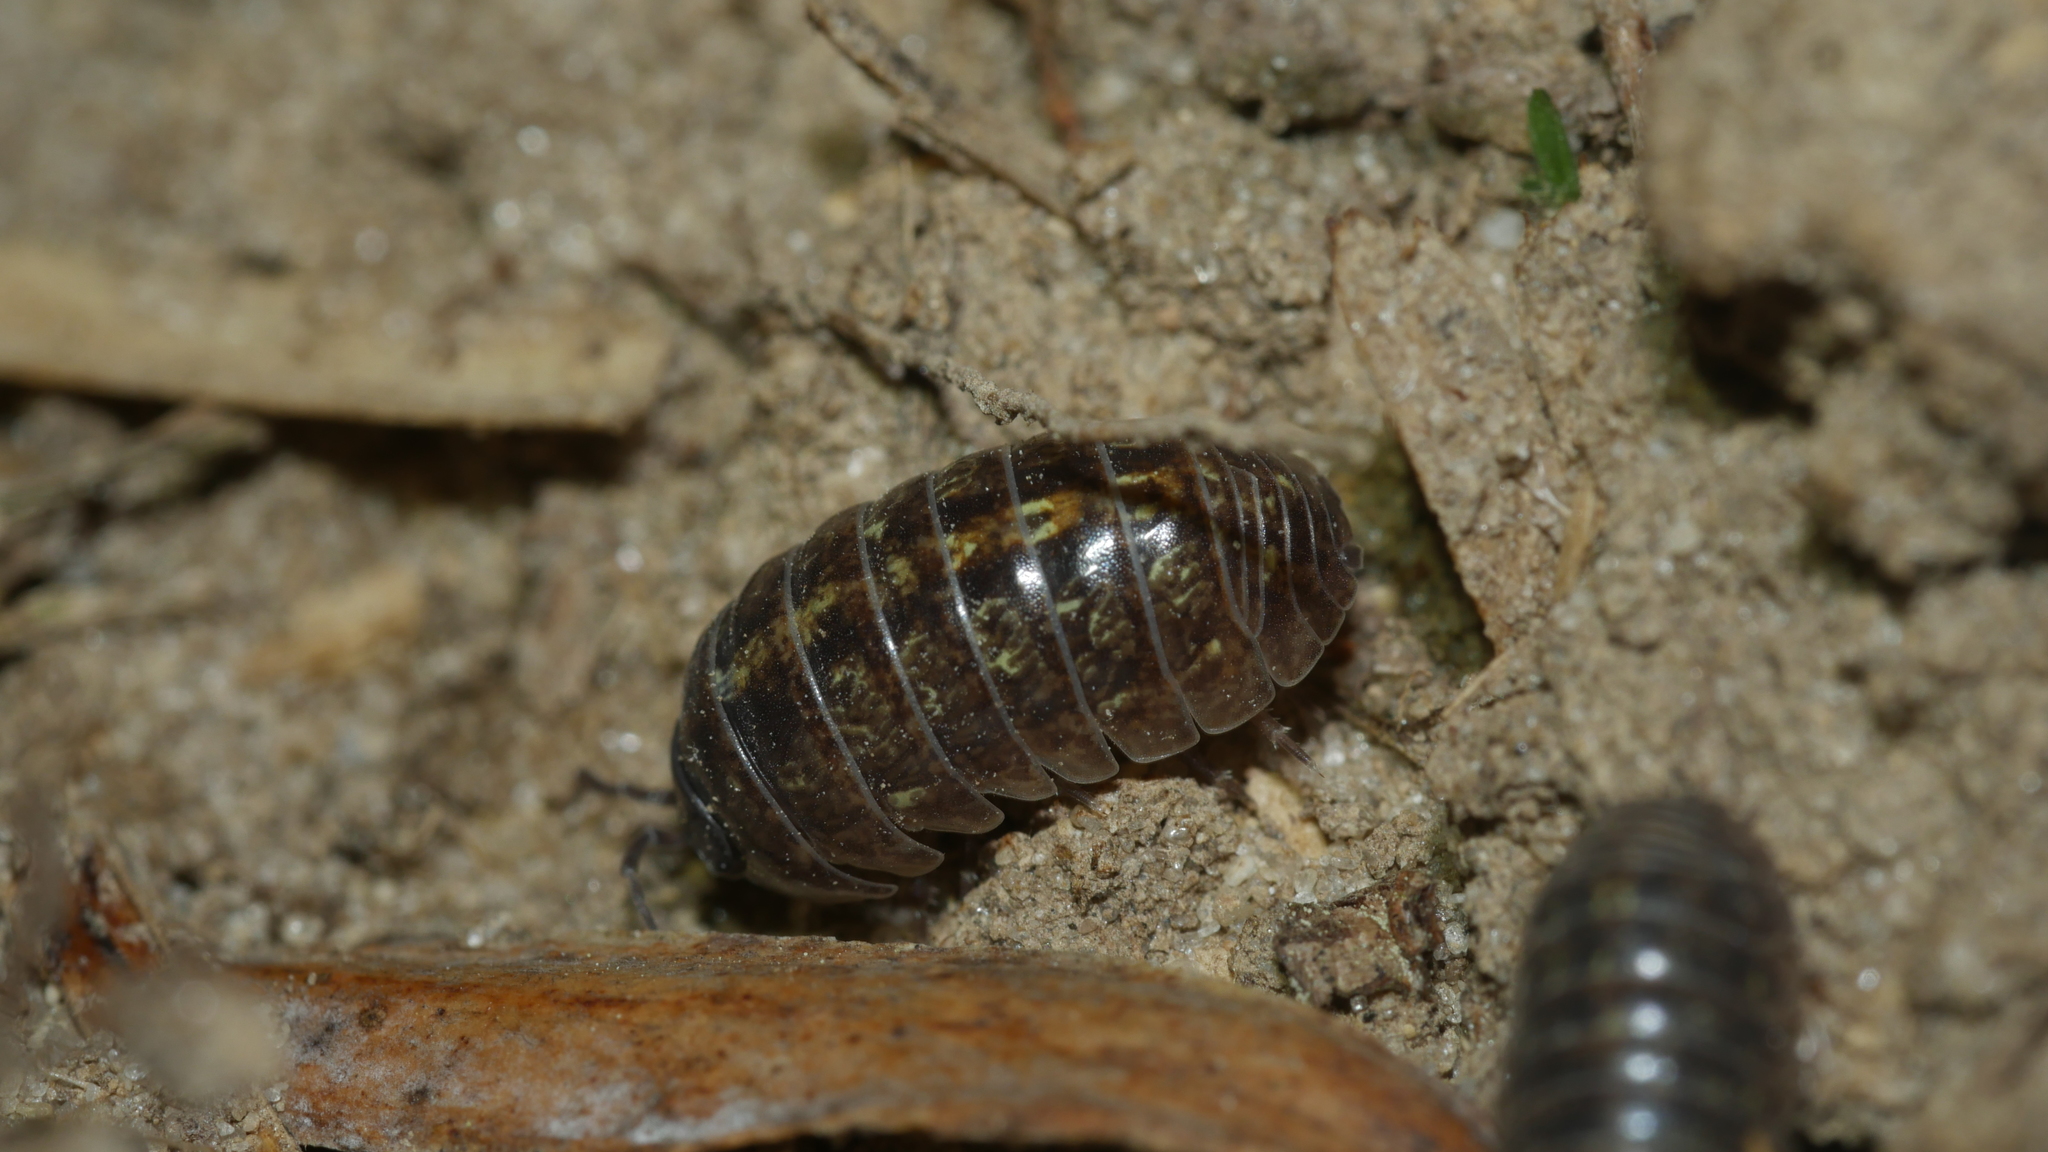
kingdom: Animalia
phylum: Arthropoda
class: Malacostraca
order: Isopoda
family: Armadillidiidae
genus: Armadillidium
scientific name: Armadillidium vulgare
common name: Common pill woodlouse
